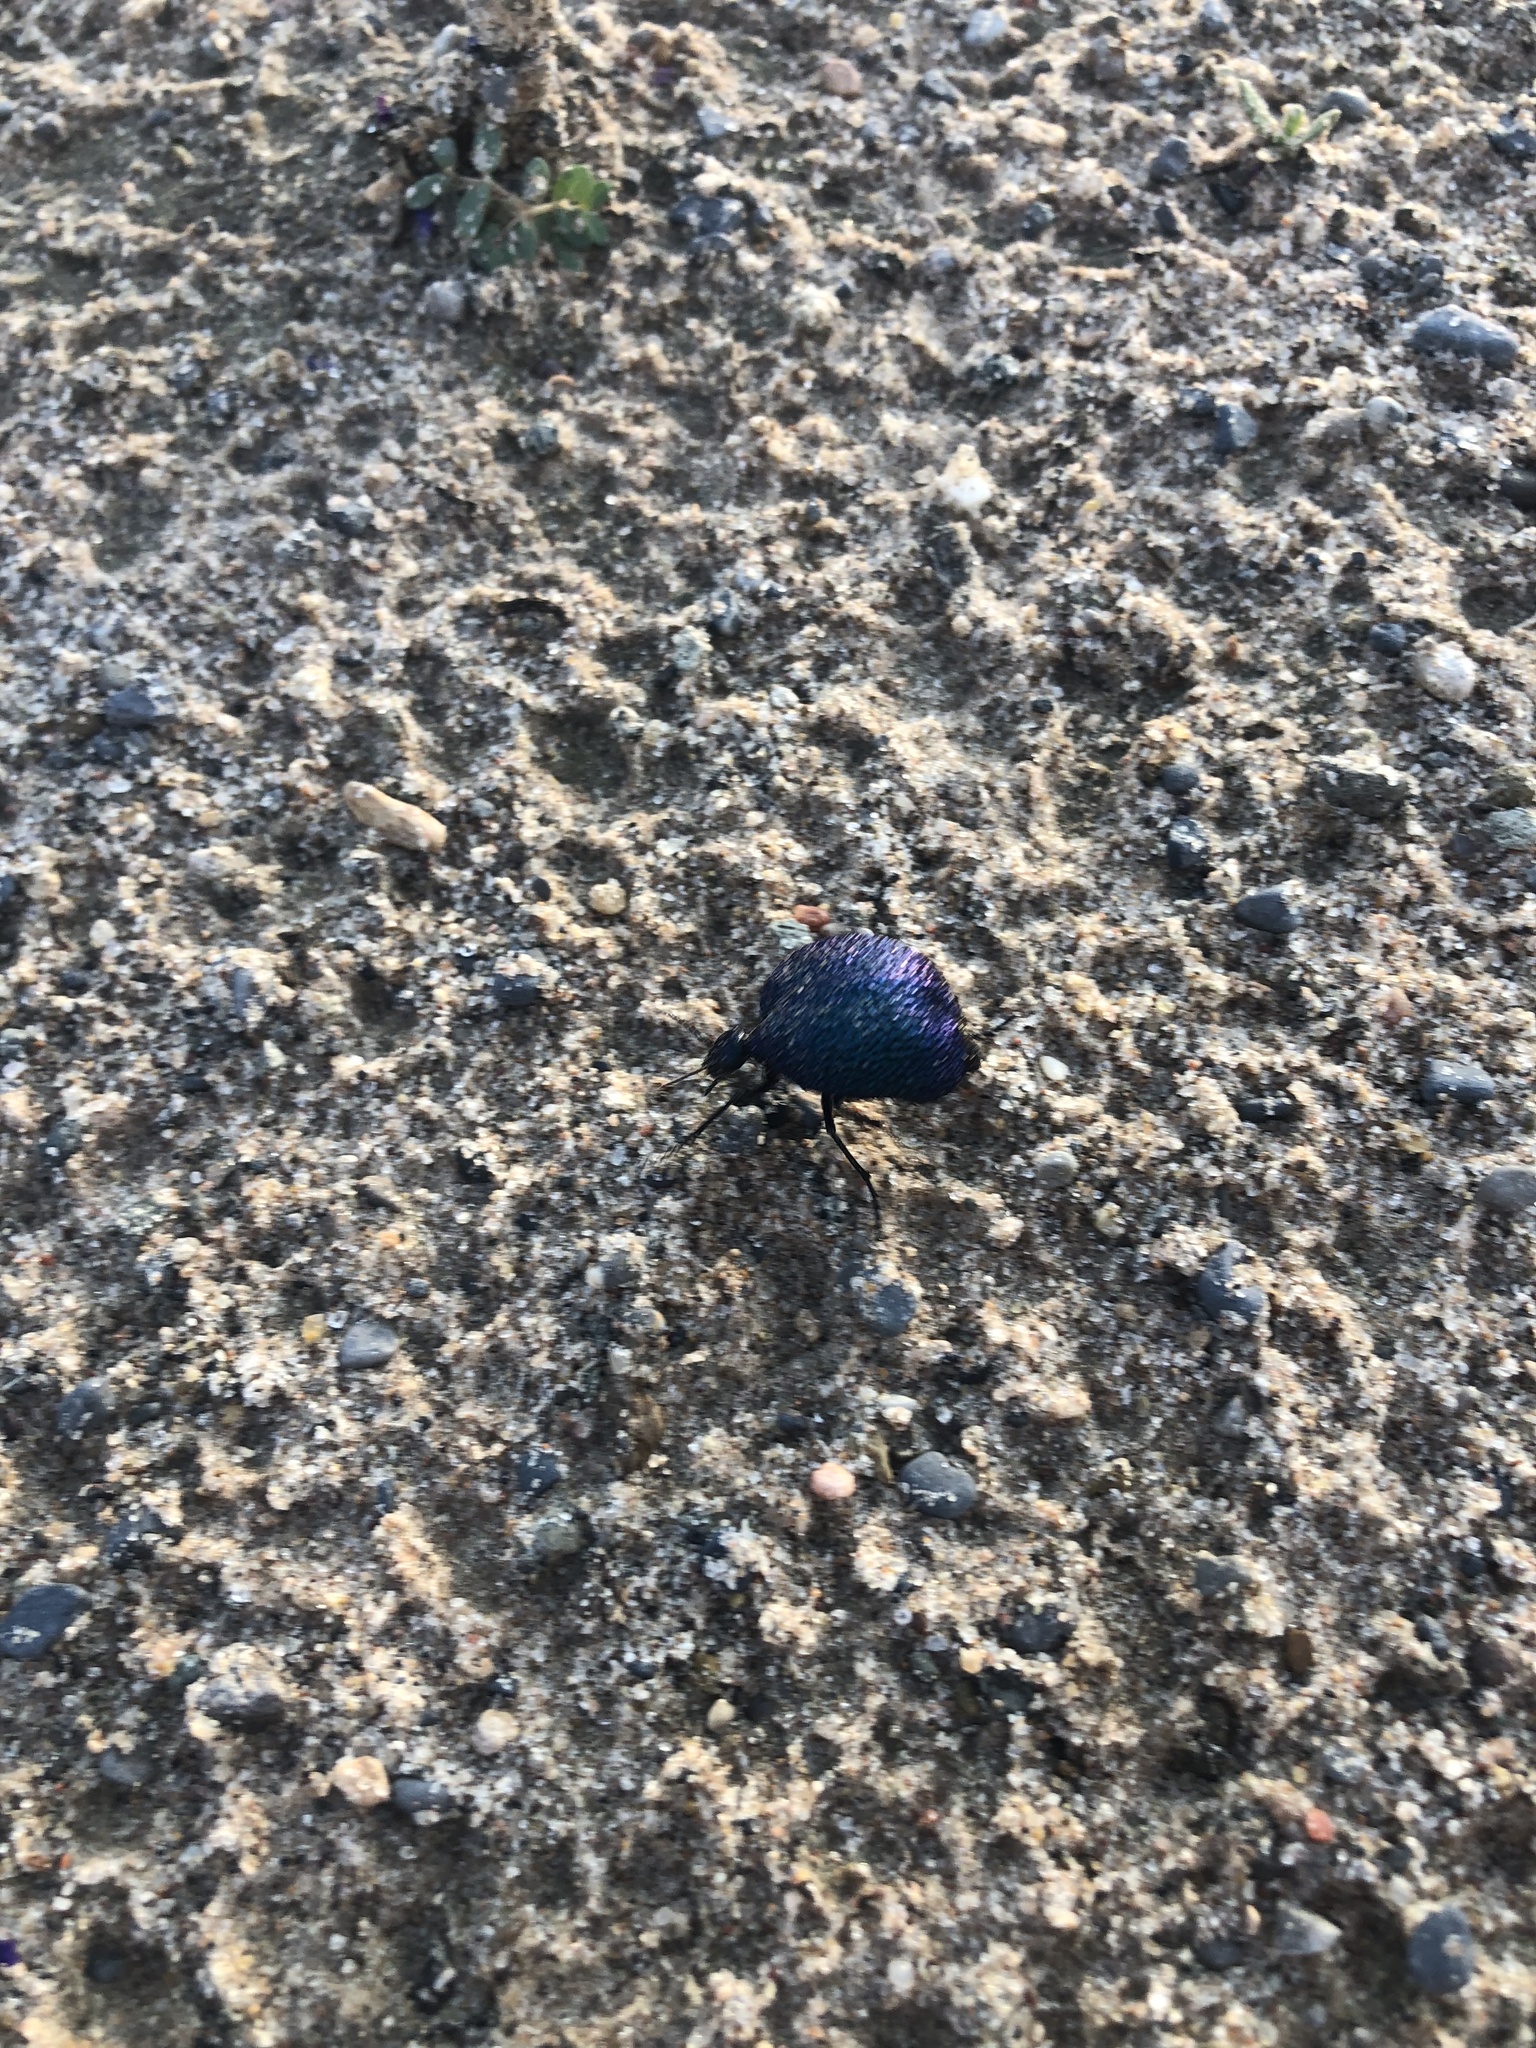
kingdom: Animalia
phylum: Arthropoda
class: Insecta
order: Coleoptera
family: Meloidae
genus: Cysteodemus
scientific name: Cysteodemus wislizeni
